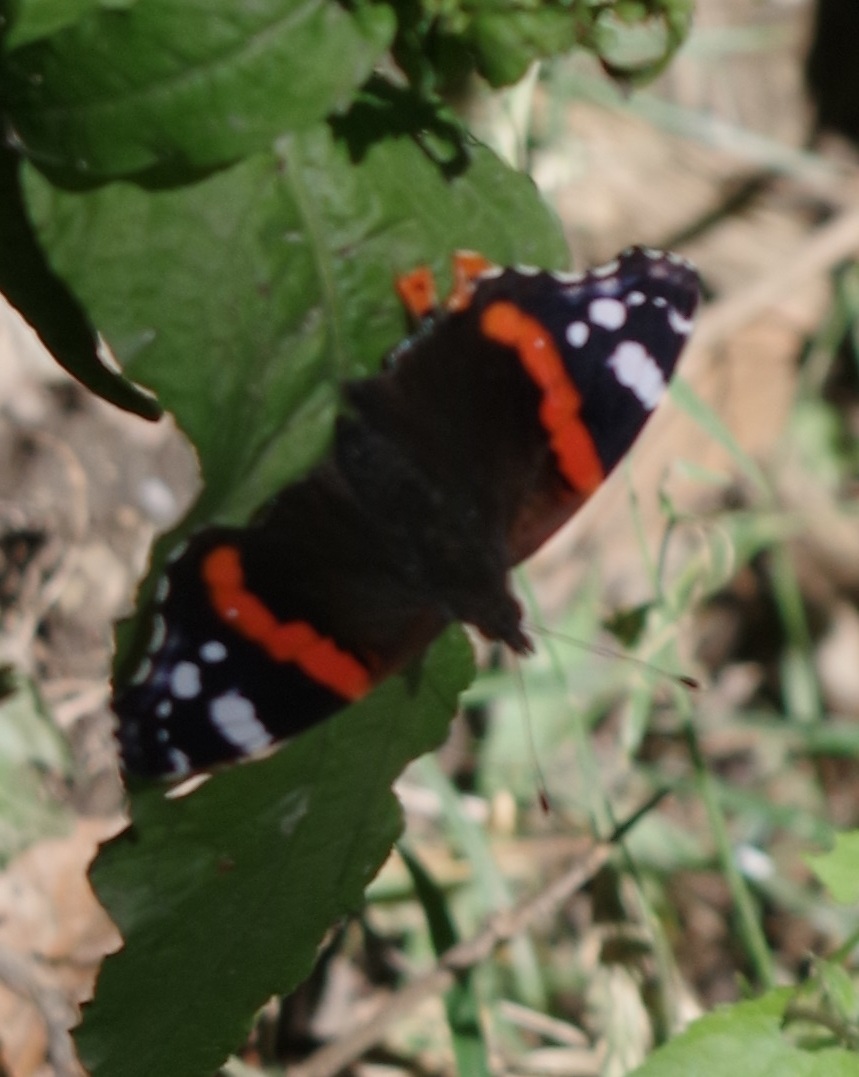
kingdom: Animalia
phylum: Arthropoda
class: Insecta
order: Lepidoptera
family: Nymphalidae
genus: Vanessa
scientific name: Vanessa atalanta
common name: Red admiral
